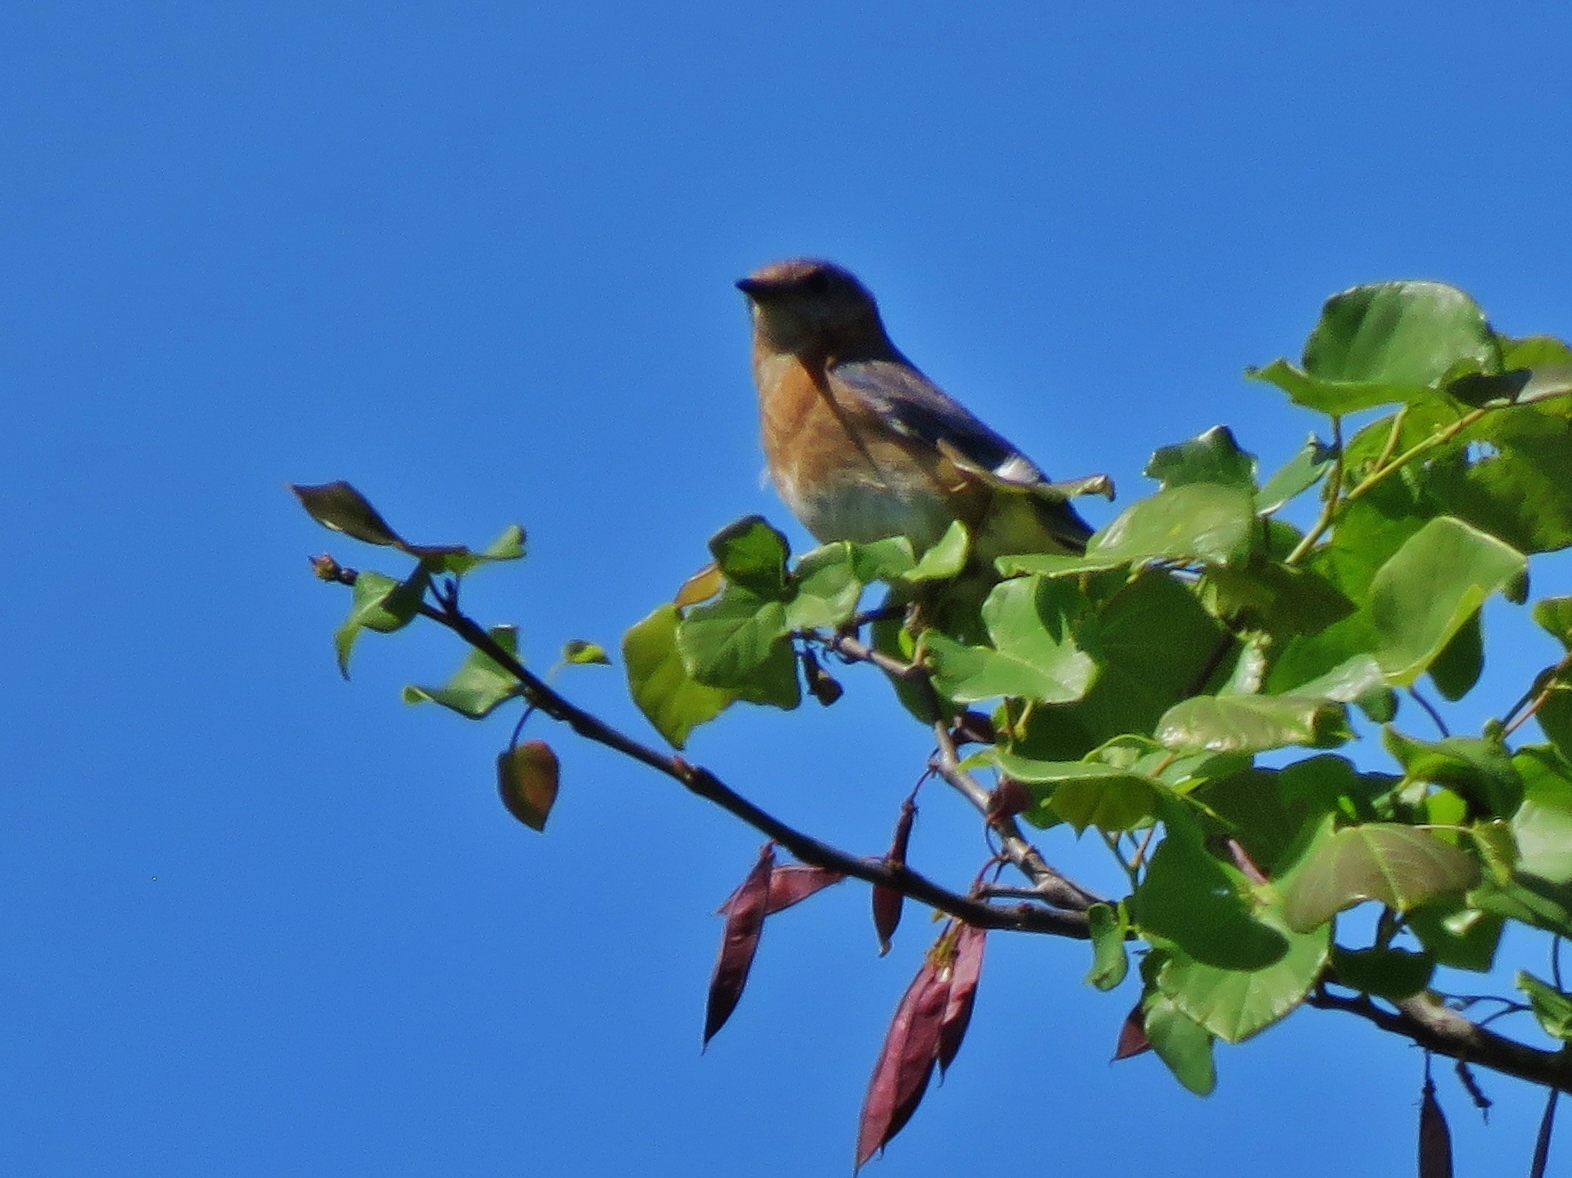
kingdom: Animalia
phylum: Chordata
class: Aves
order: Passeriformes
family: Turdidae
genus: Sialia
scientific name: Sialia sialis
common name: Eastern bluebird
